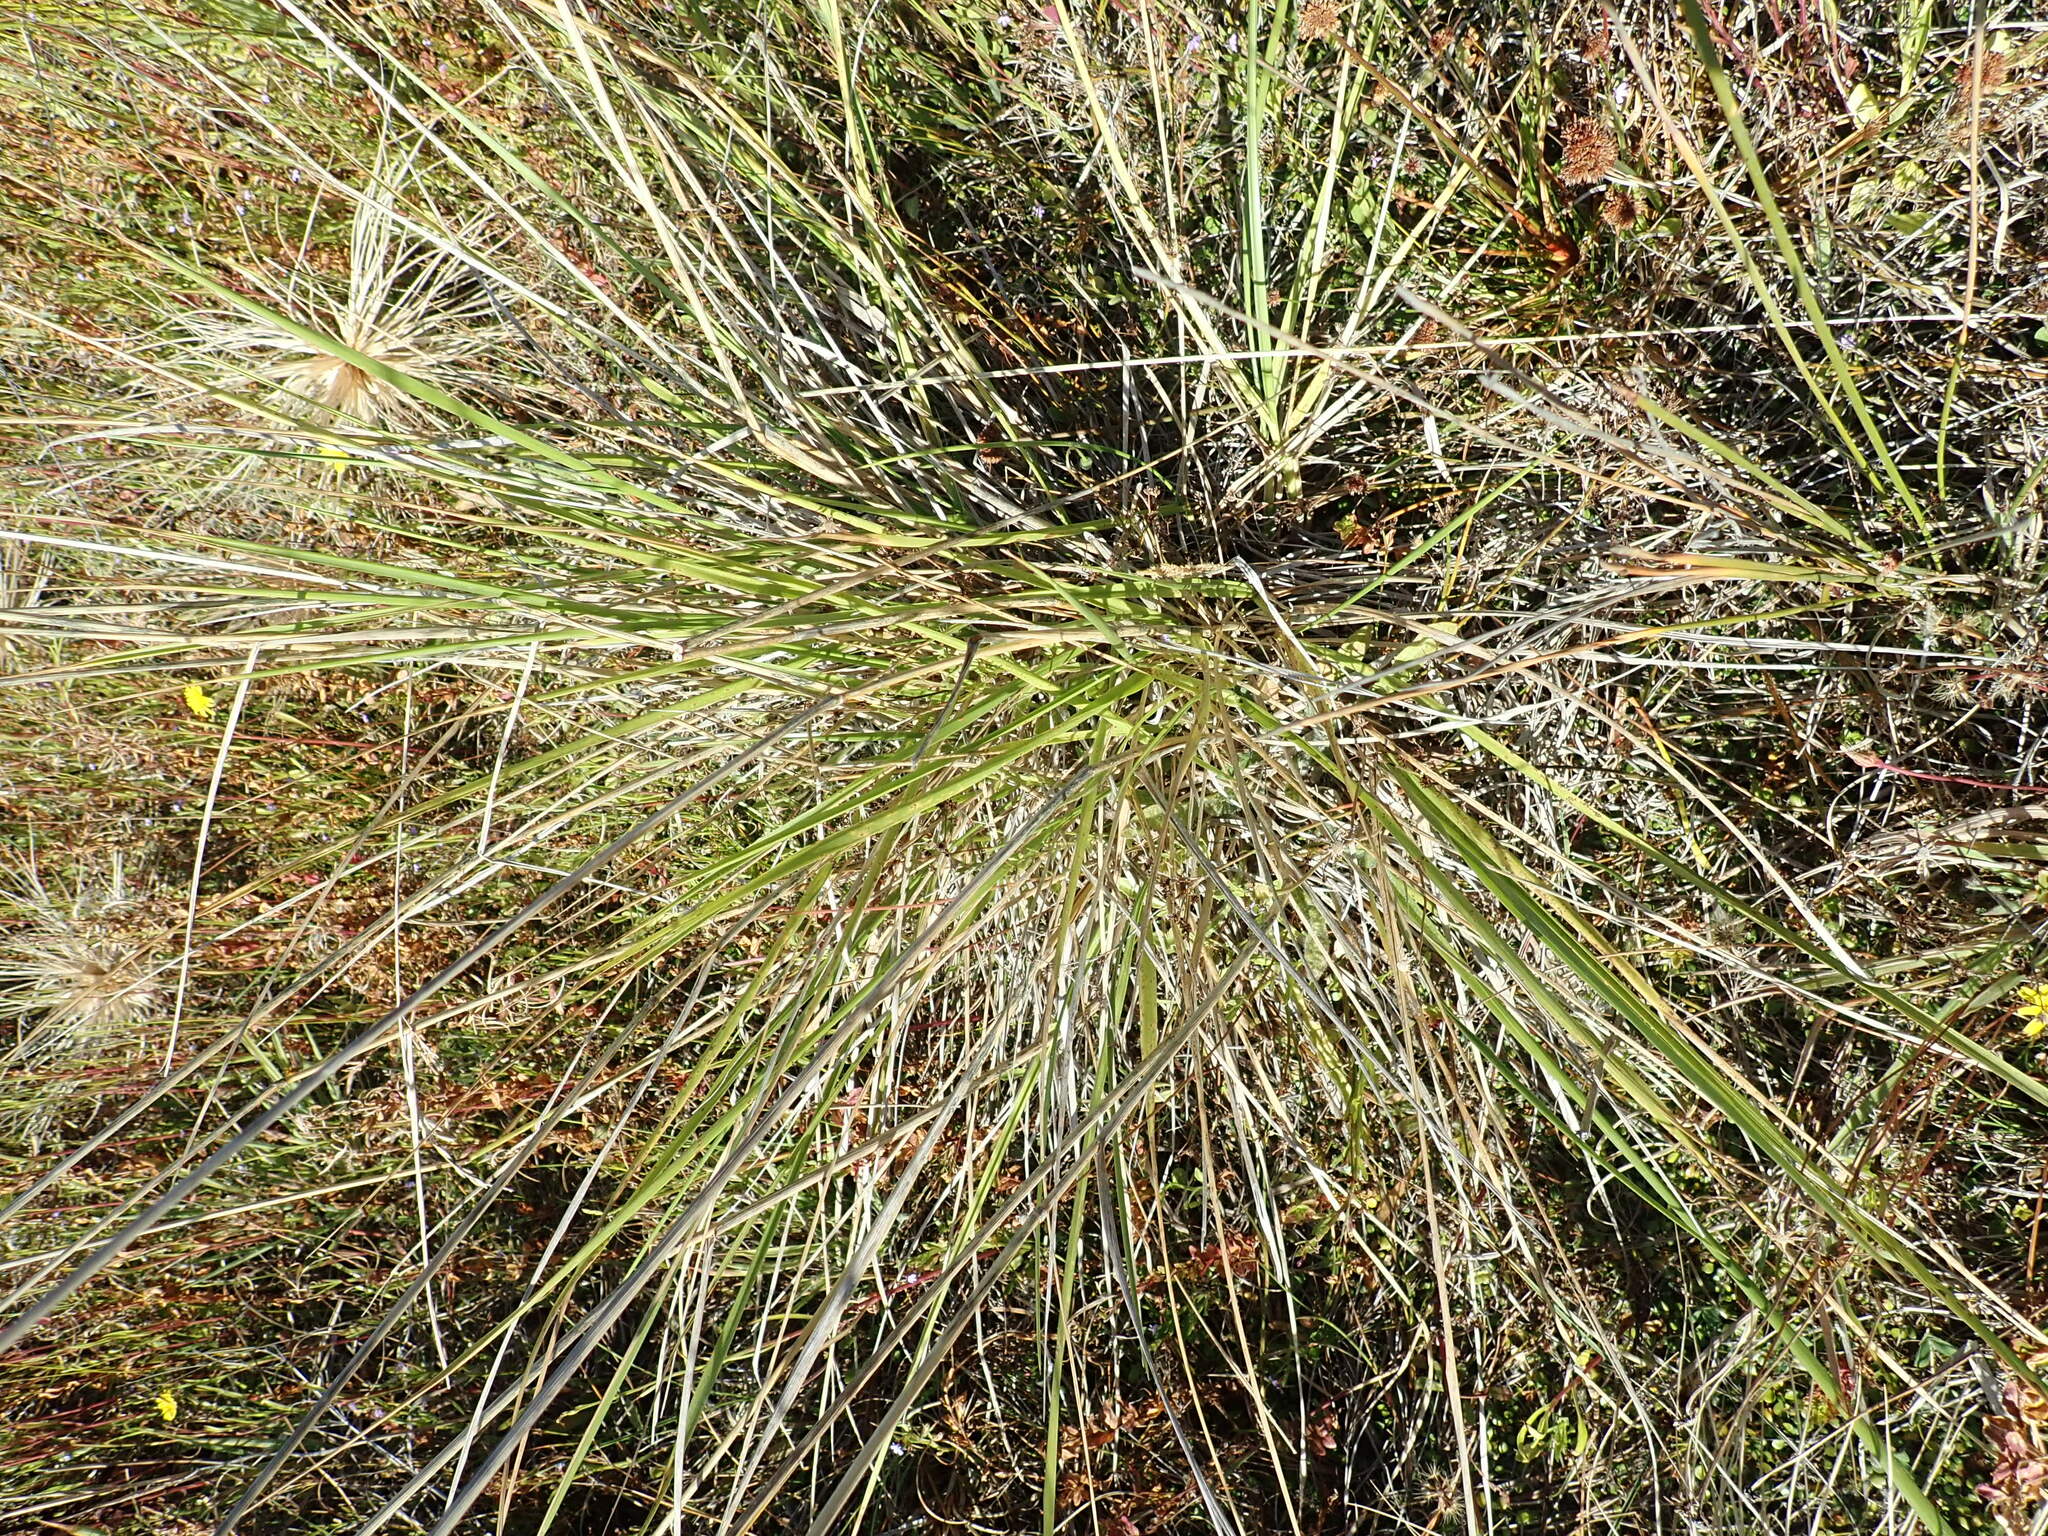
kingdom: Plantae
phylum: Tracheophyta
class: Liliopsida
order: Poales
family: Poaceae
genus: Lolium
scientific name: Lolium arundinaceum
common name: Reed fescue
